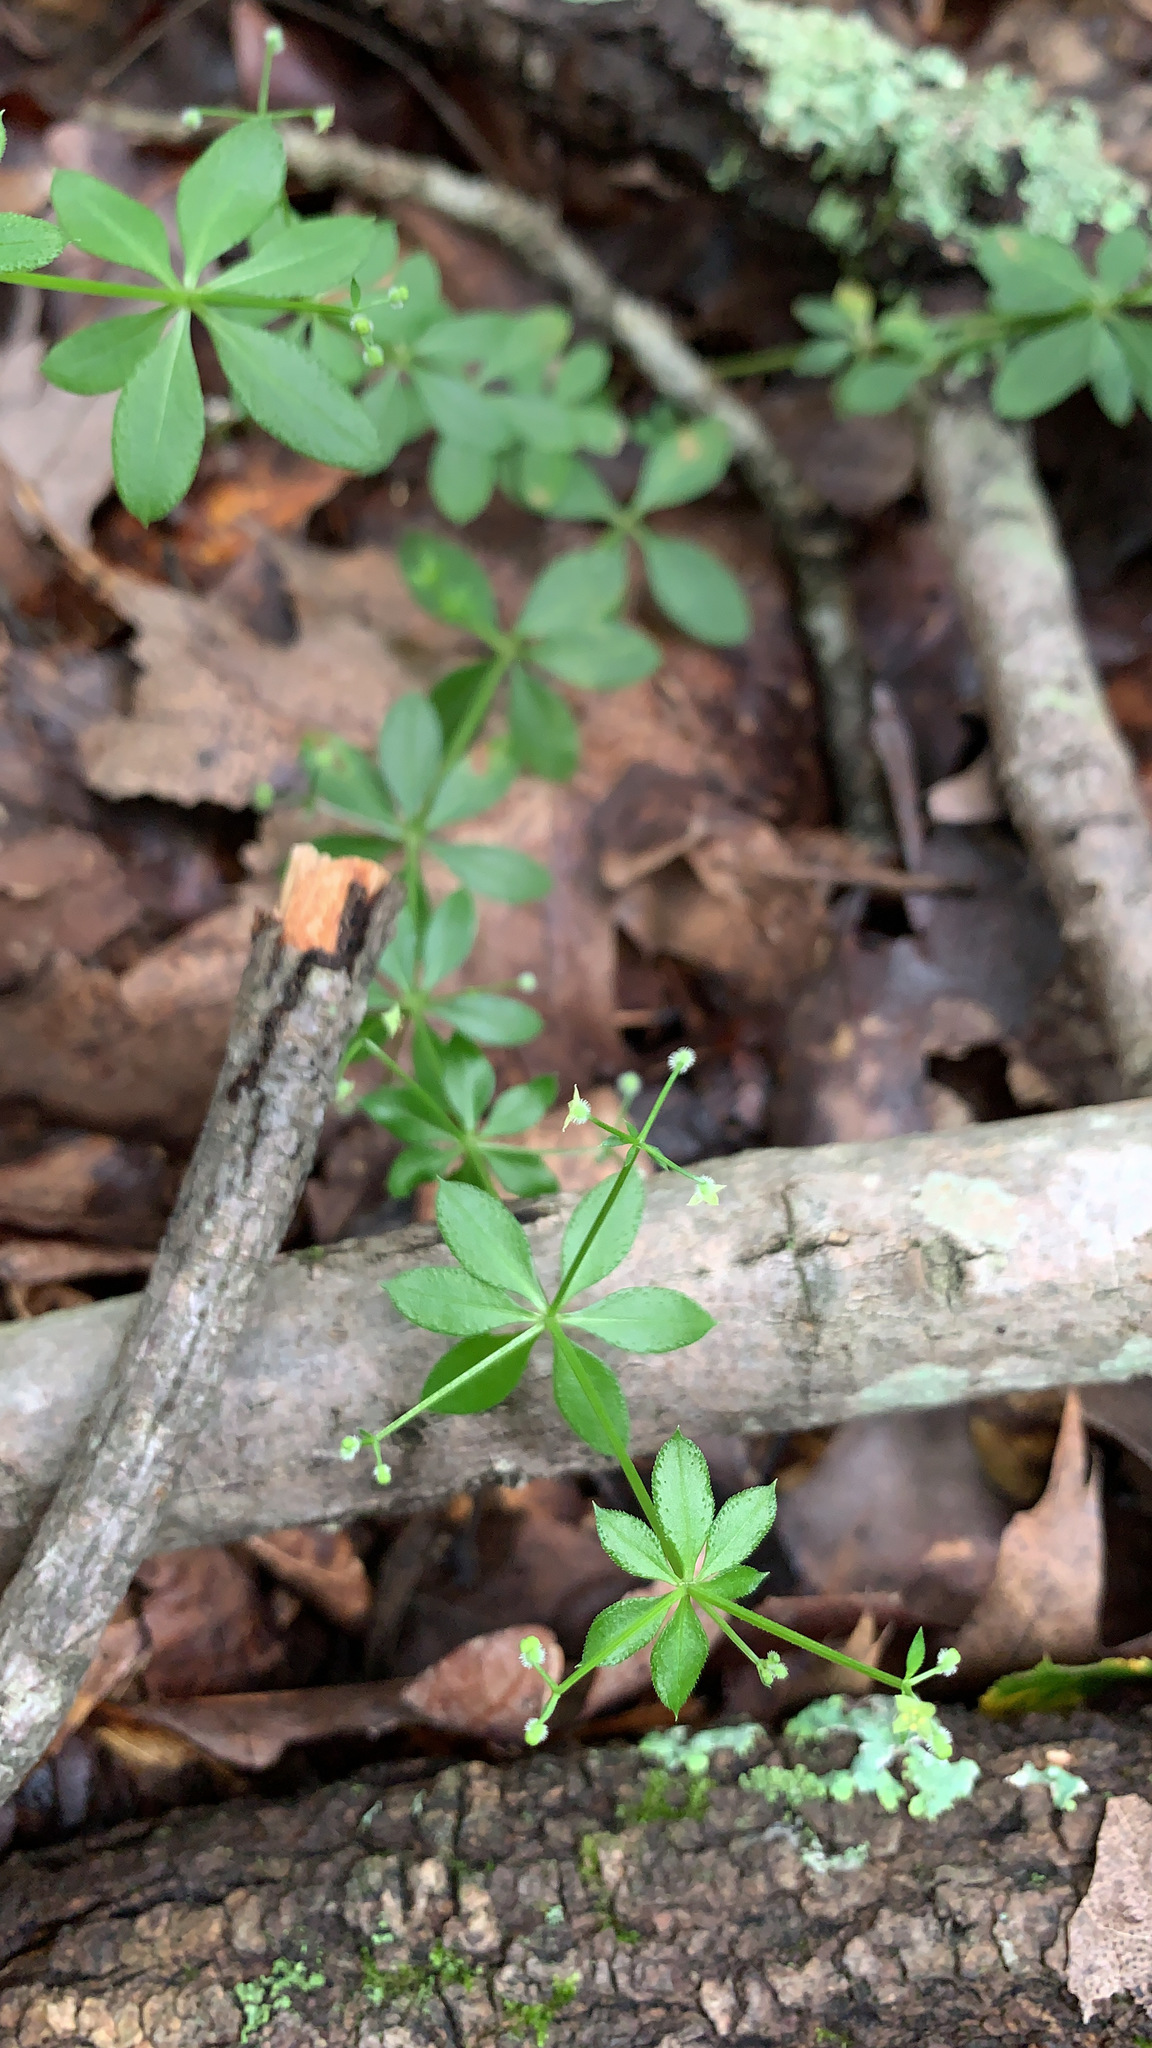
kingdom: Plantae
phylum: Tracheophyta
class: Magnoliopsida
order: Gentianales
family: Rubiaceae
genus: Galium
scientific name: Galium triflorum
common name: Fragrant bedstraw
